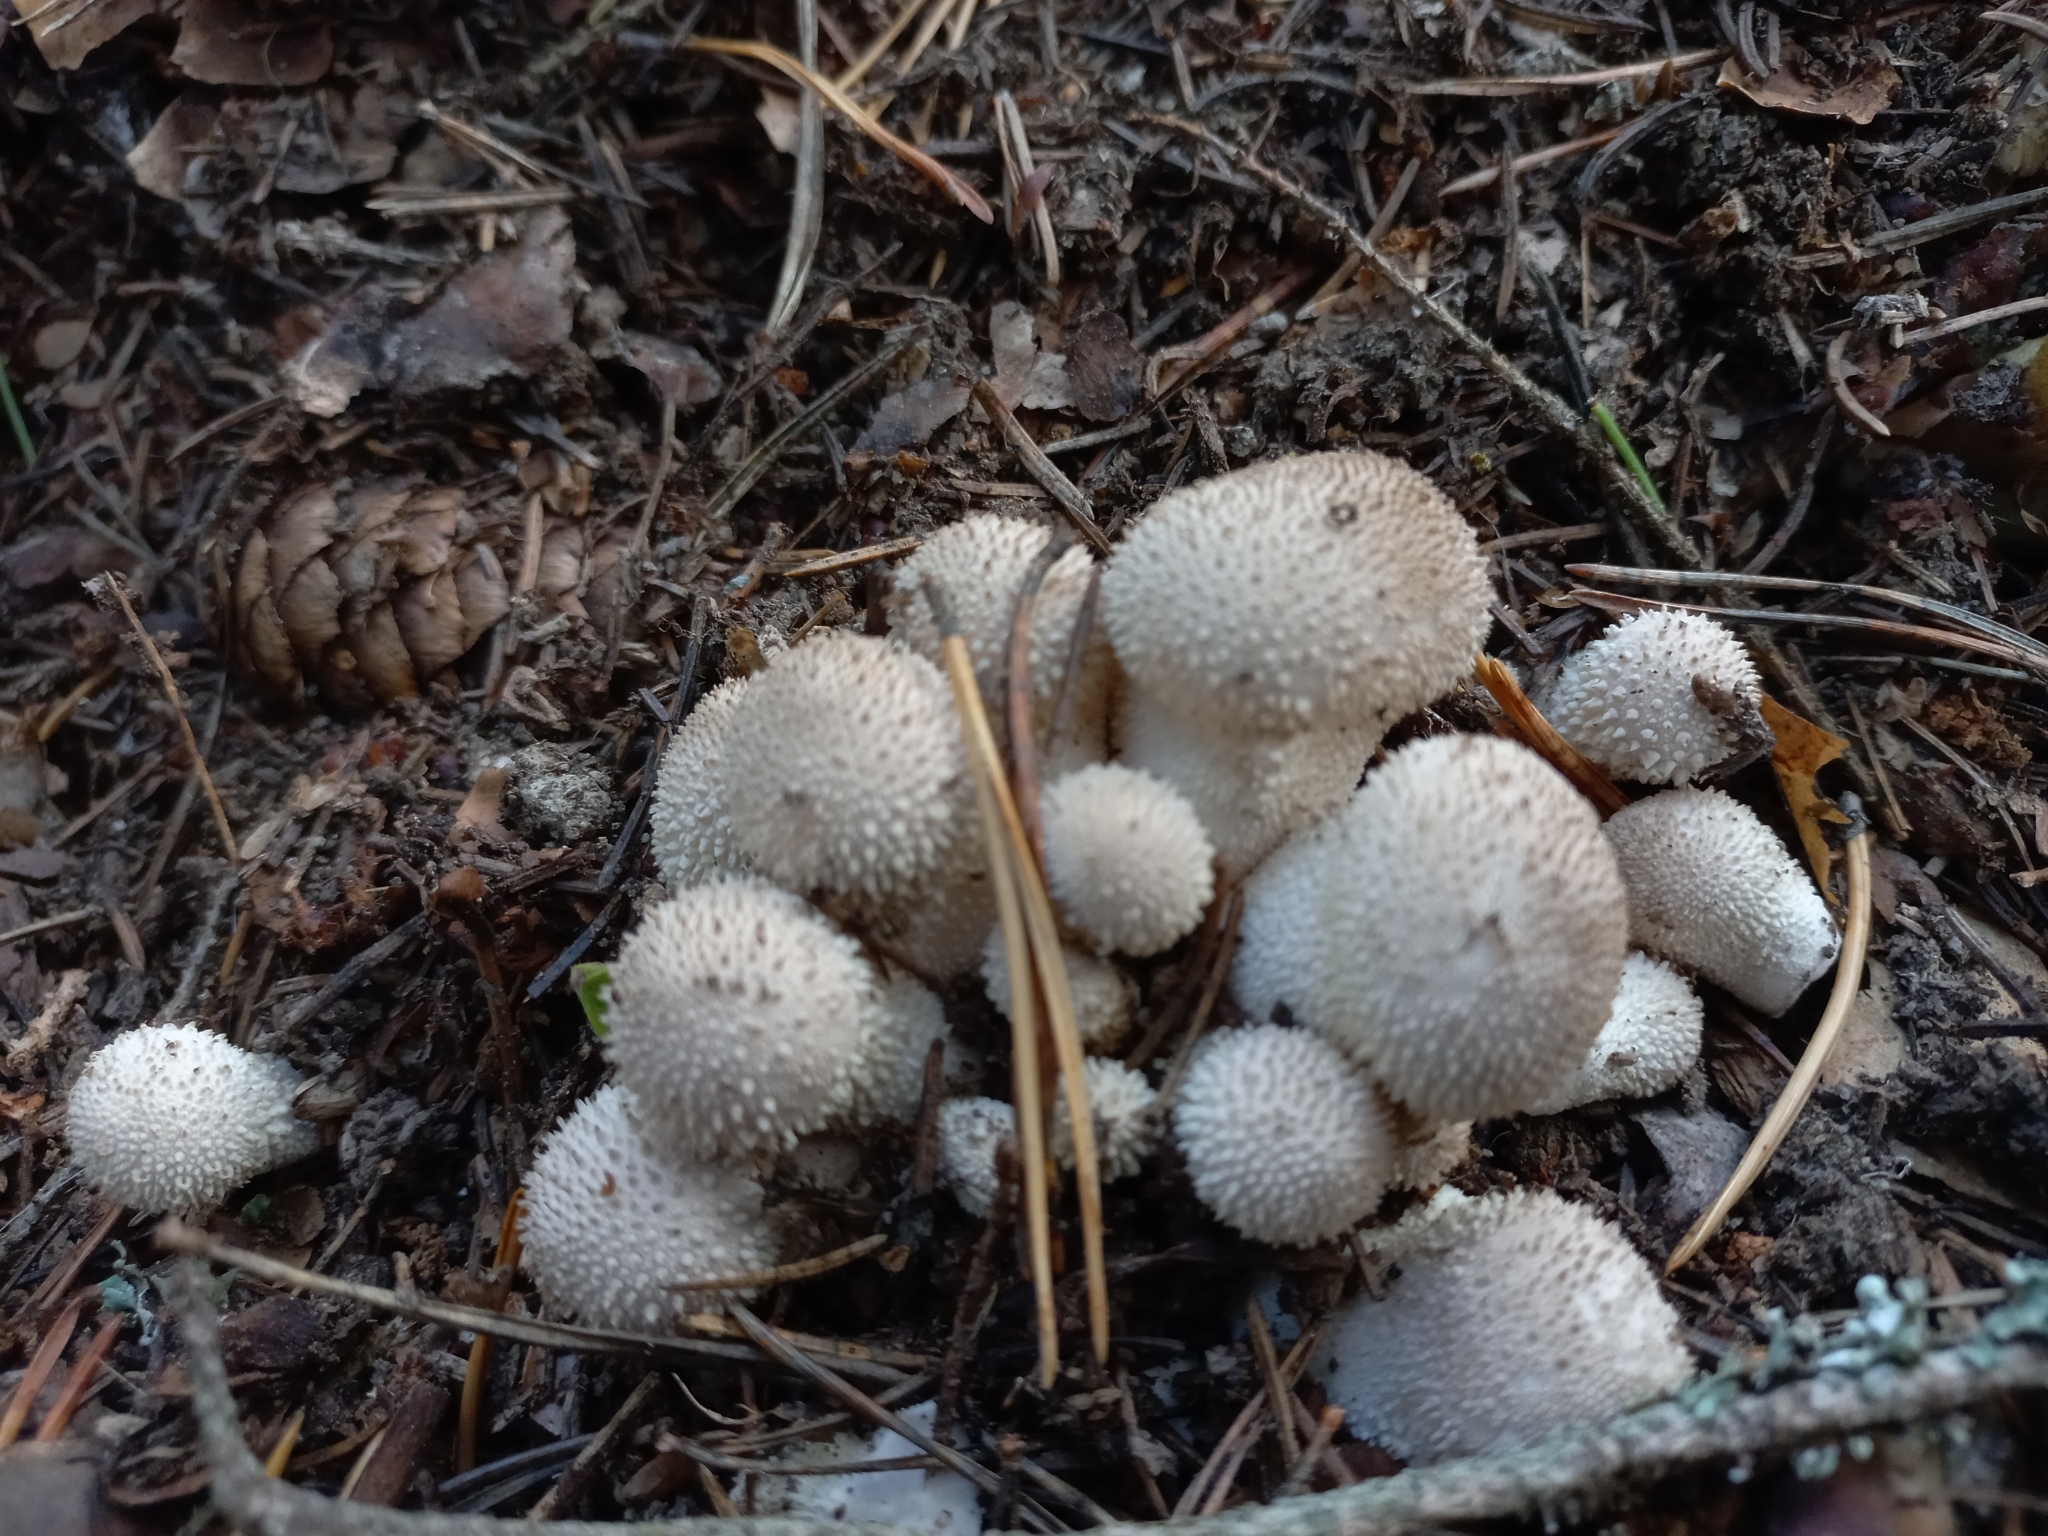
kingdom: Fungi
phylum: Basidiomycota
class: Agaricomycetes
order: Agaricales
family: Lycoperdaceae
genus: Lycoperdon
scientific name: Lycoperdon perlatum
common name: Common puffball
